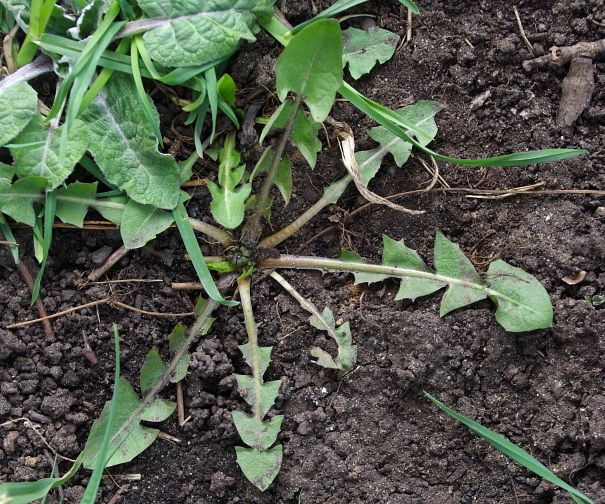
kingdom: Plantae
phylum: Tracheophyta
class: Magnoliopsida
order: Asterales
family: Asteraceae
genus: Taraxacum
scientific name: Taraxacum officinale
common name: Common dandelion
